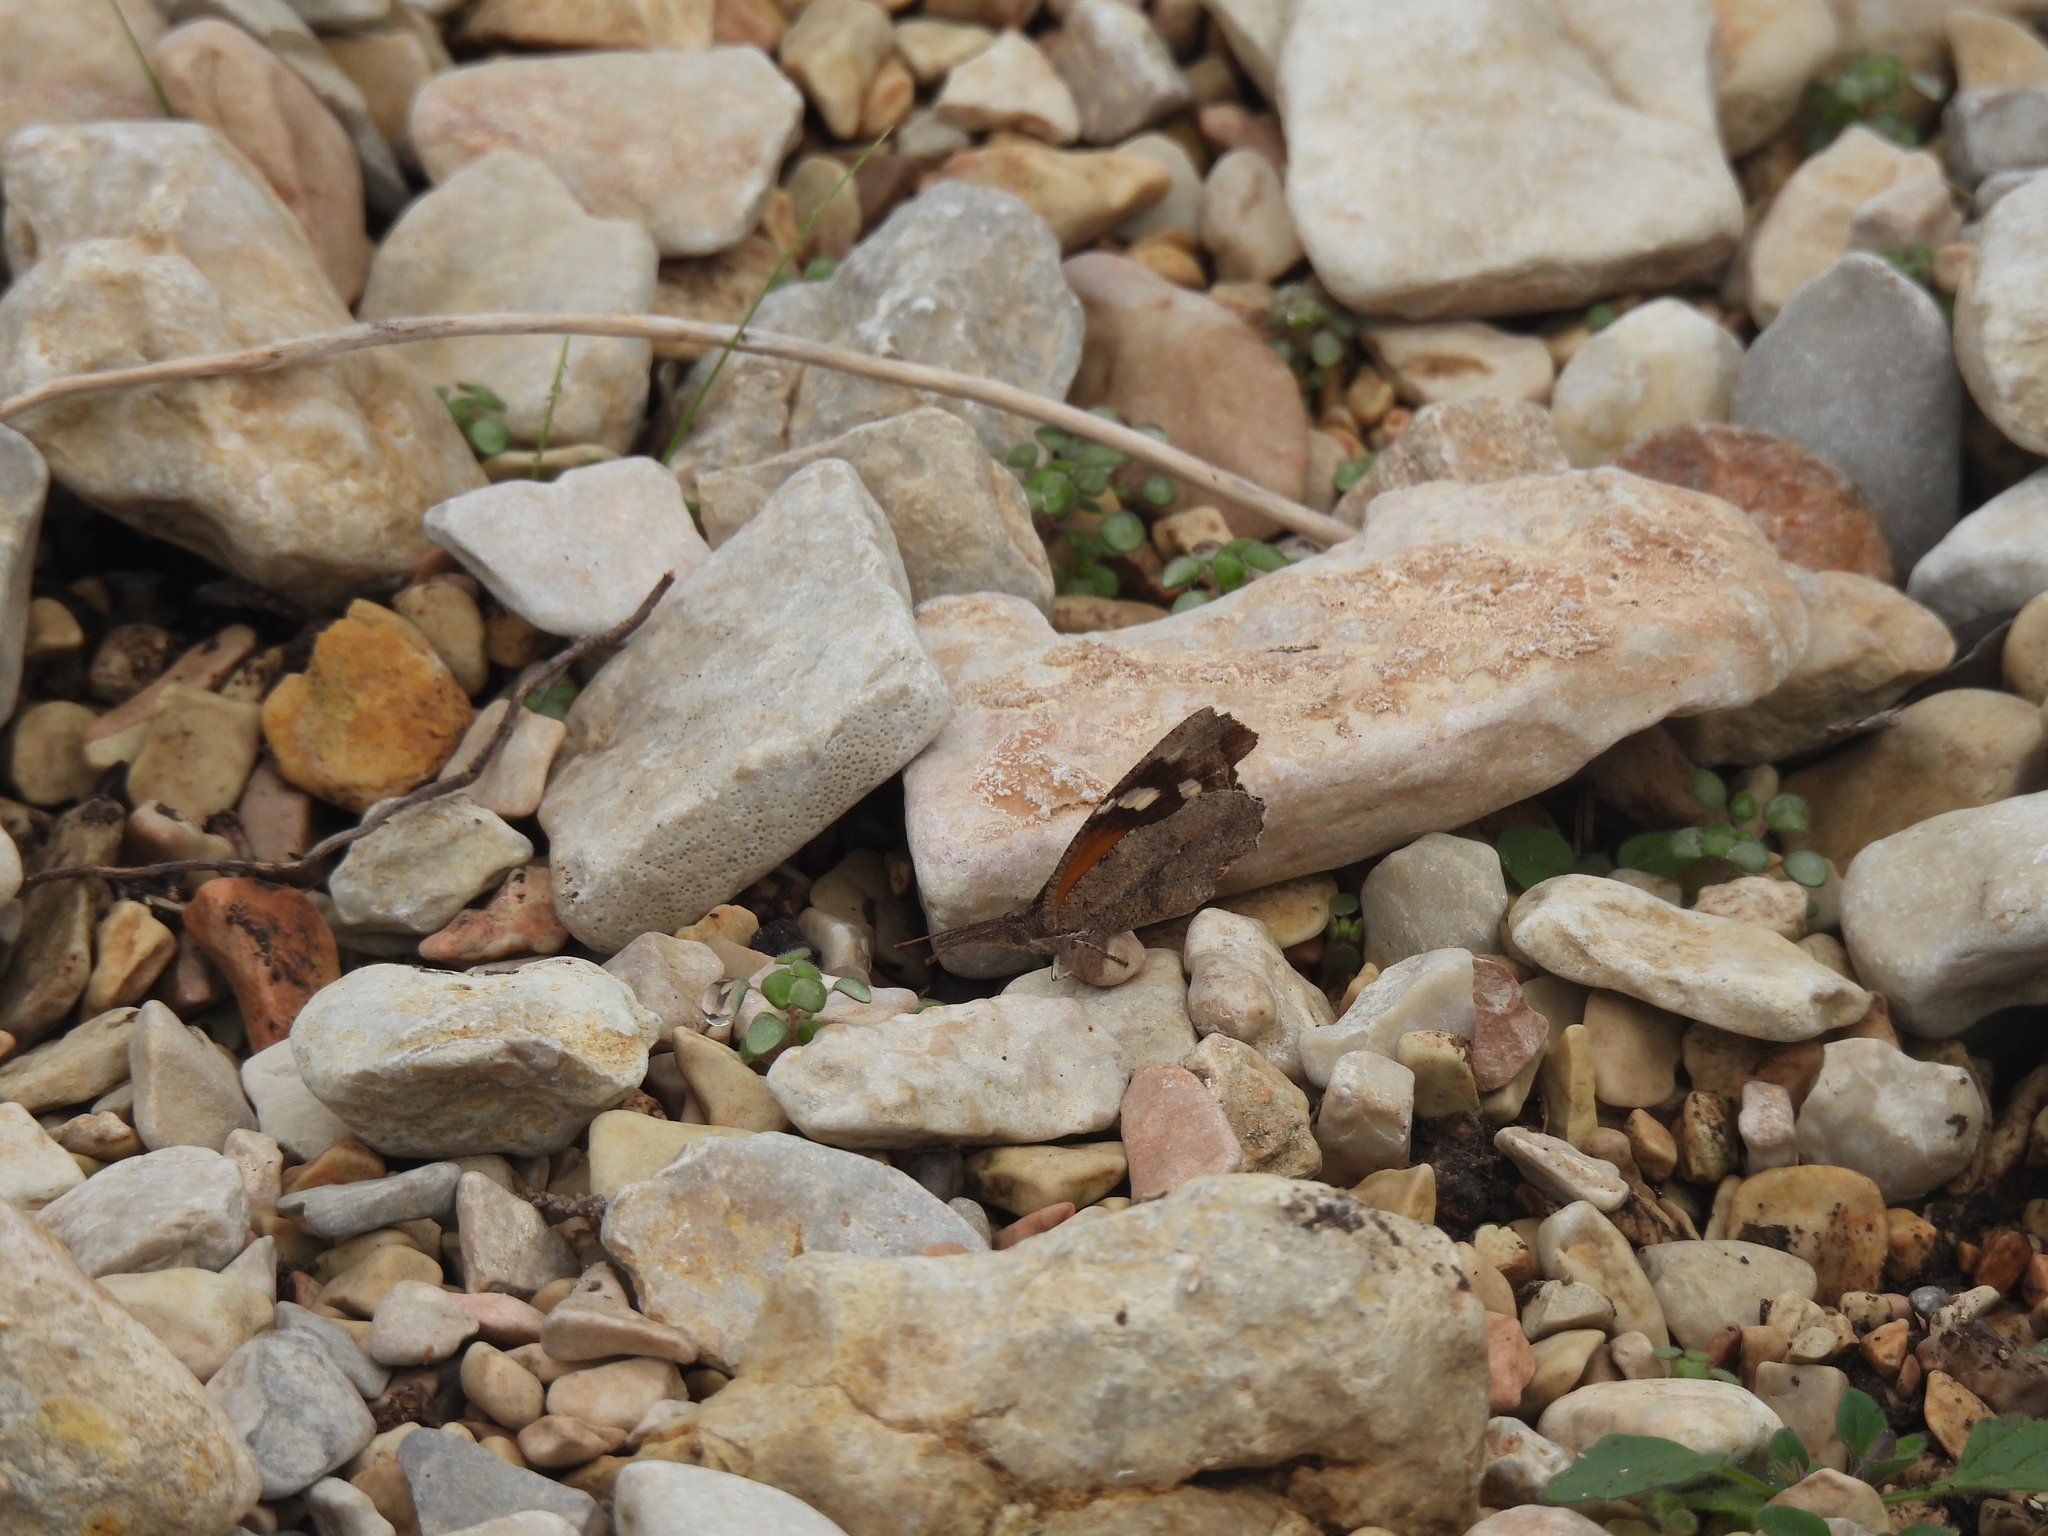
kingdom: Animalia
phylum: Arthropoda
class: Insecta
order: Lepidoptera
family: Nymphalidae
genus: Libytheana
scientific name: Libytheana carinenta
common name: American snout
